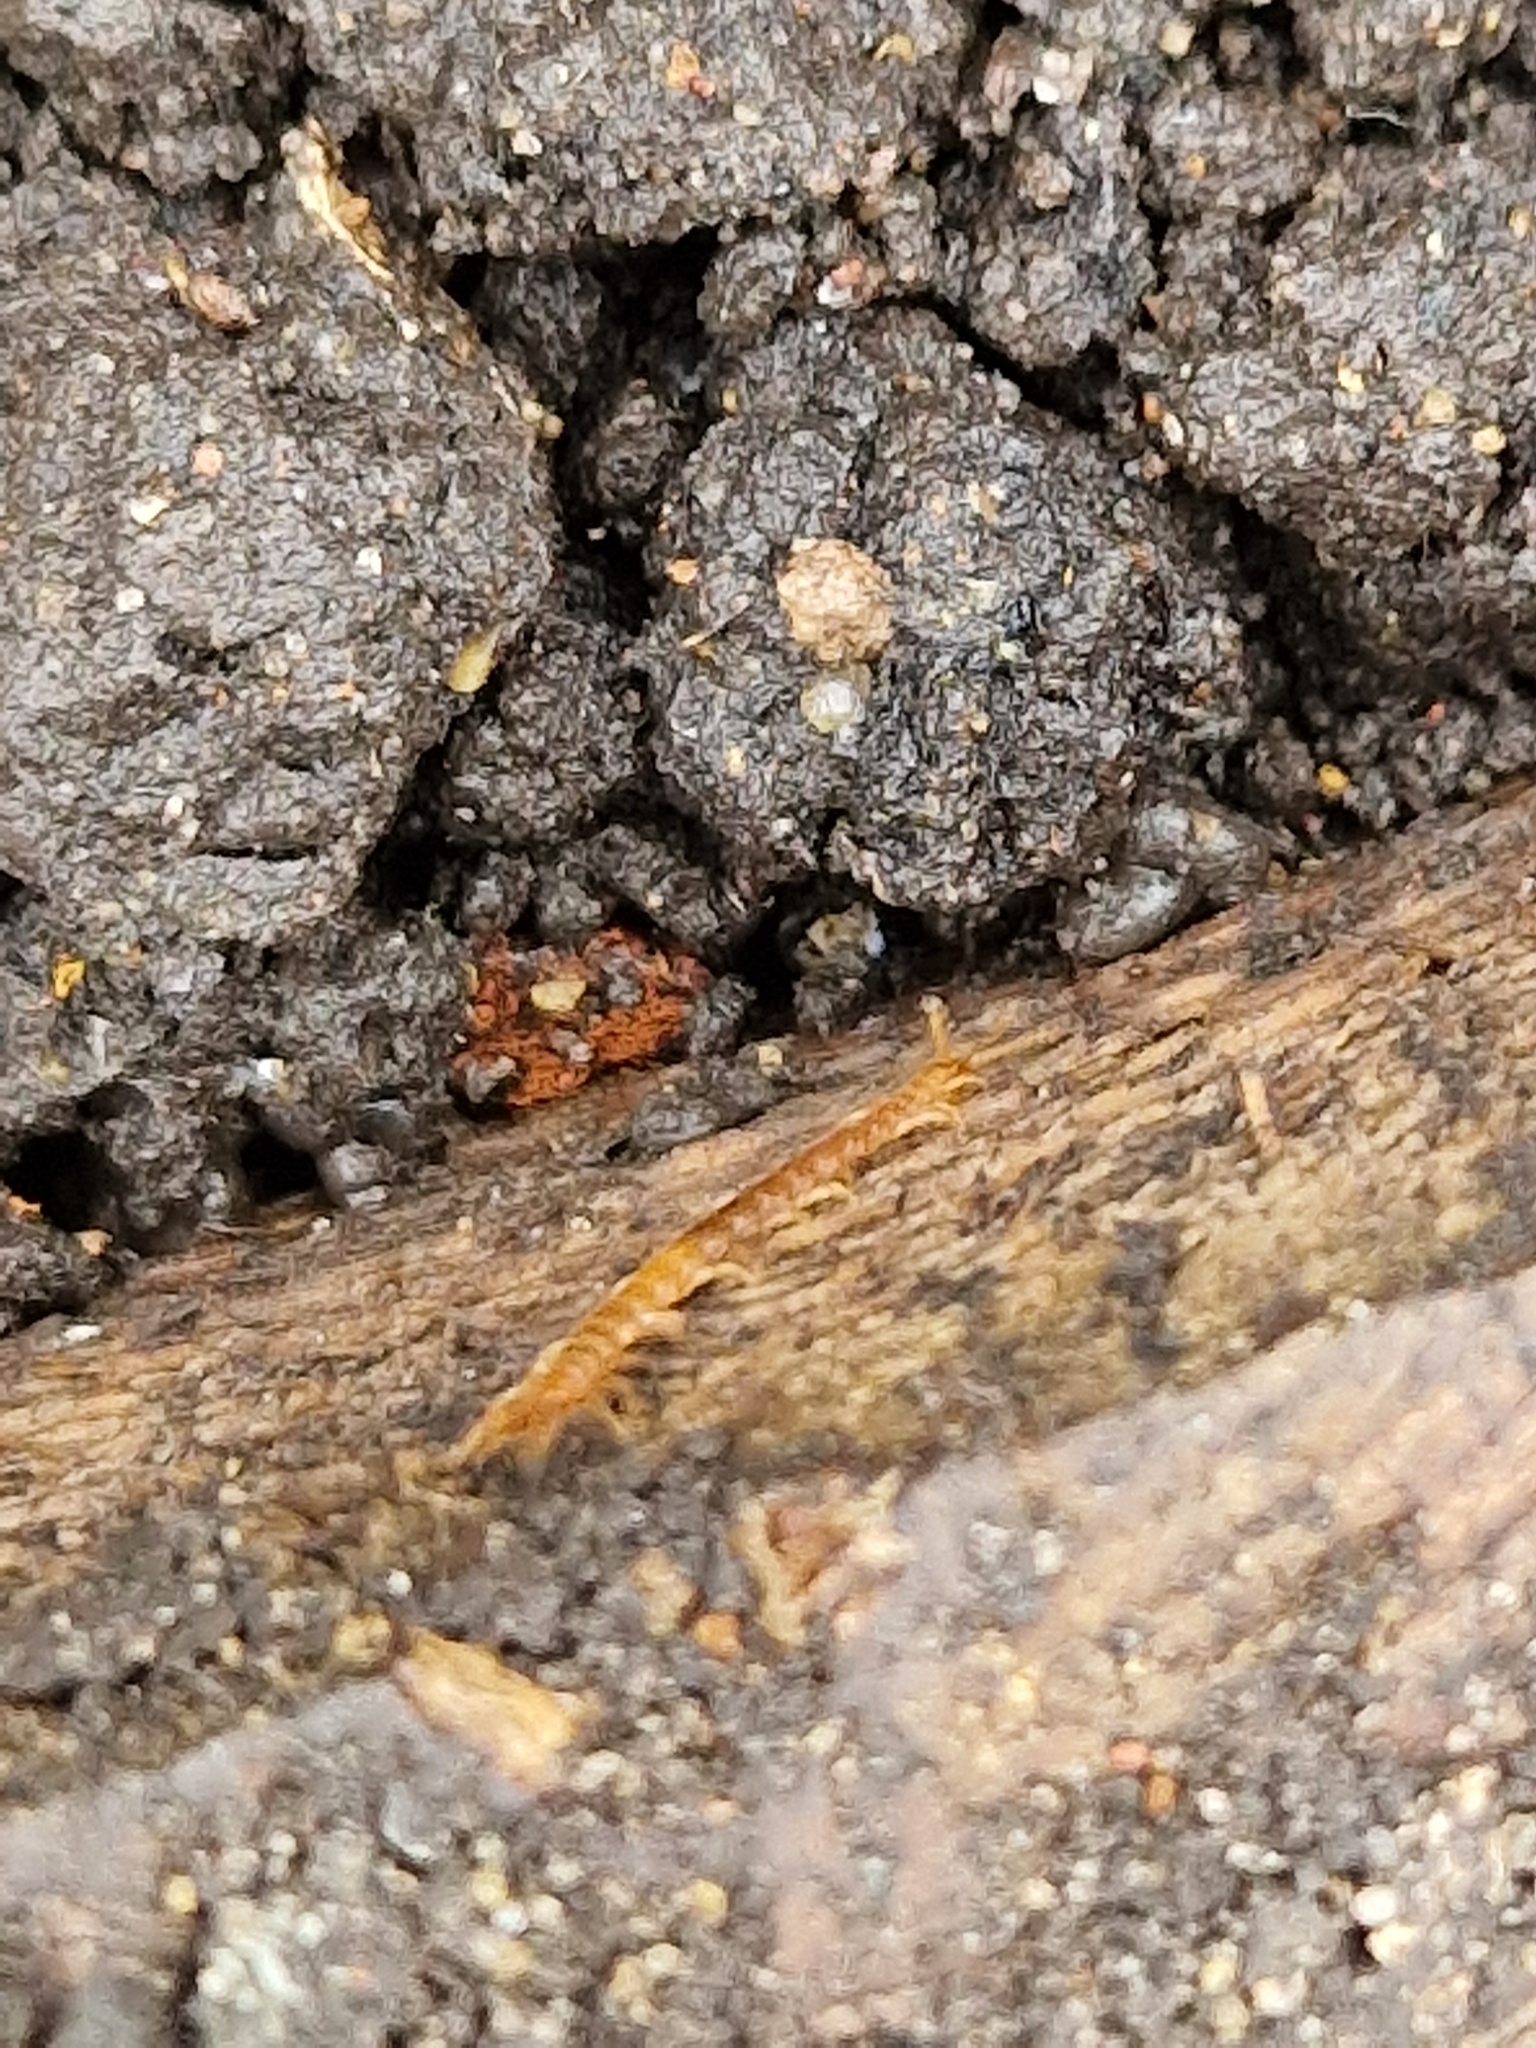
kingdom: Animalia
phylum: Arthropoda
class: Chilopoda
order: Scolopendromorpha
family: Cryptopidae
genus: Cryptops
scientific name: Cryptops
